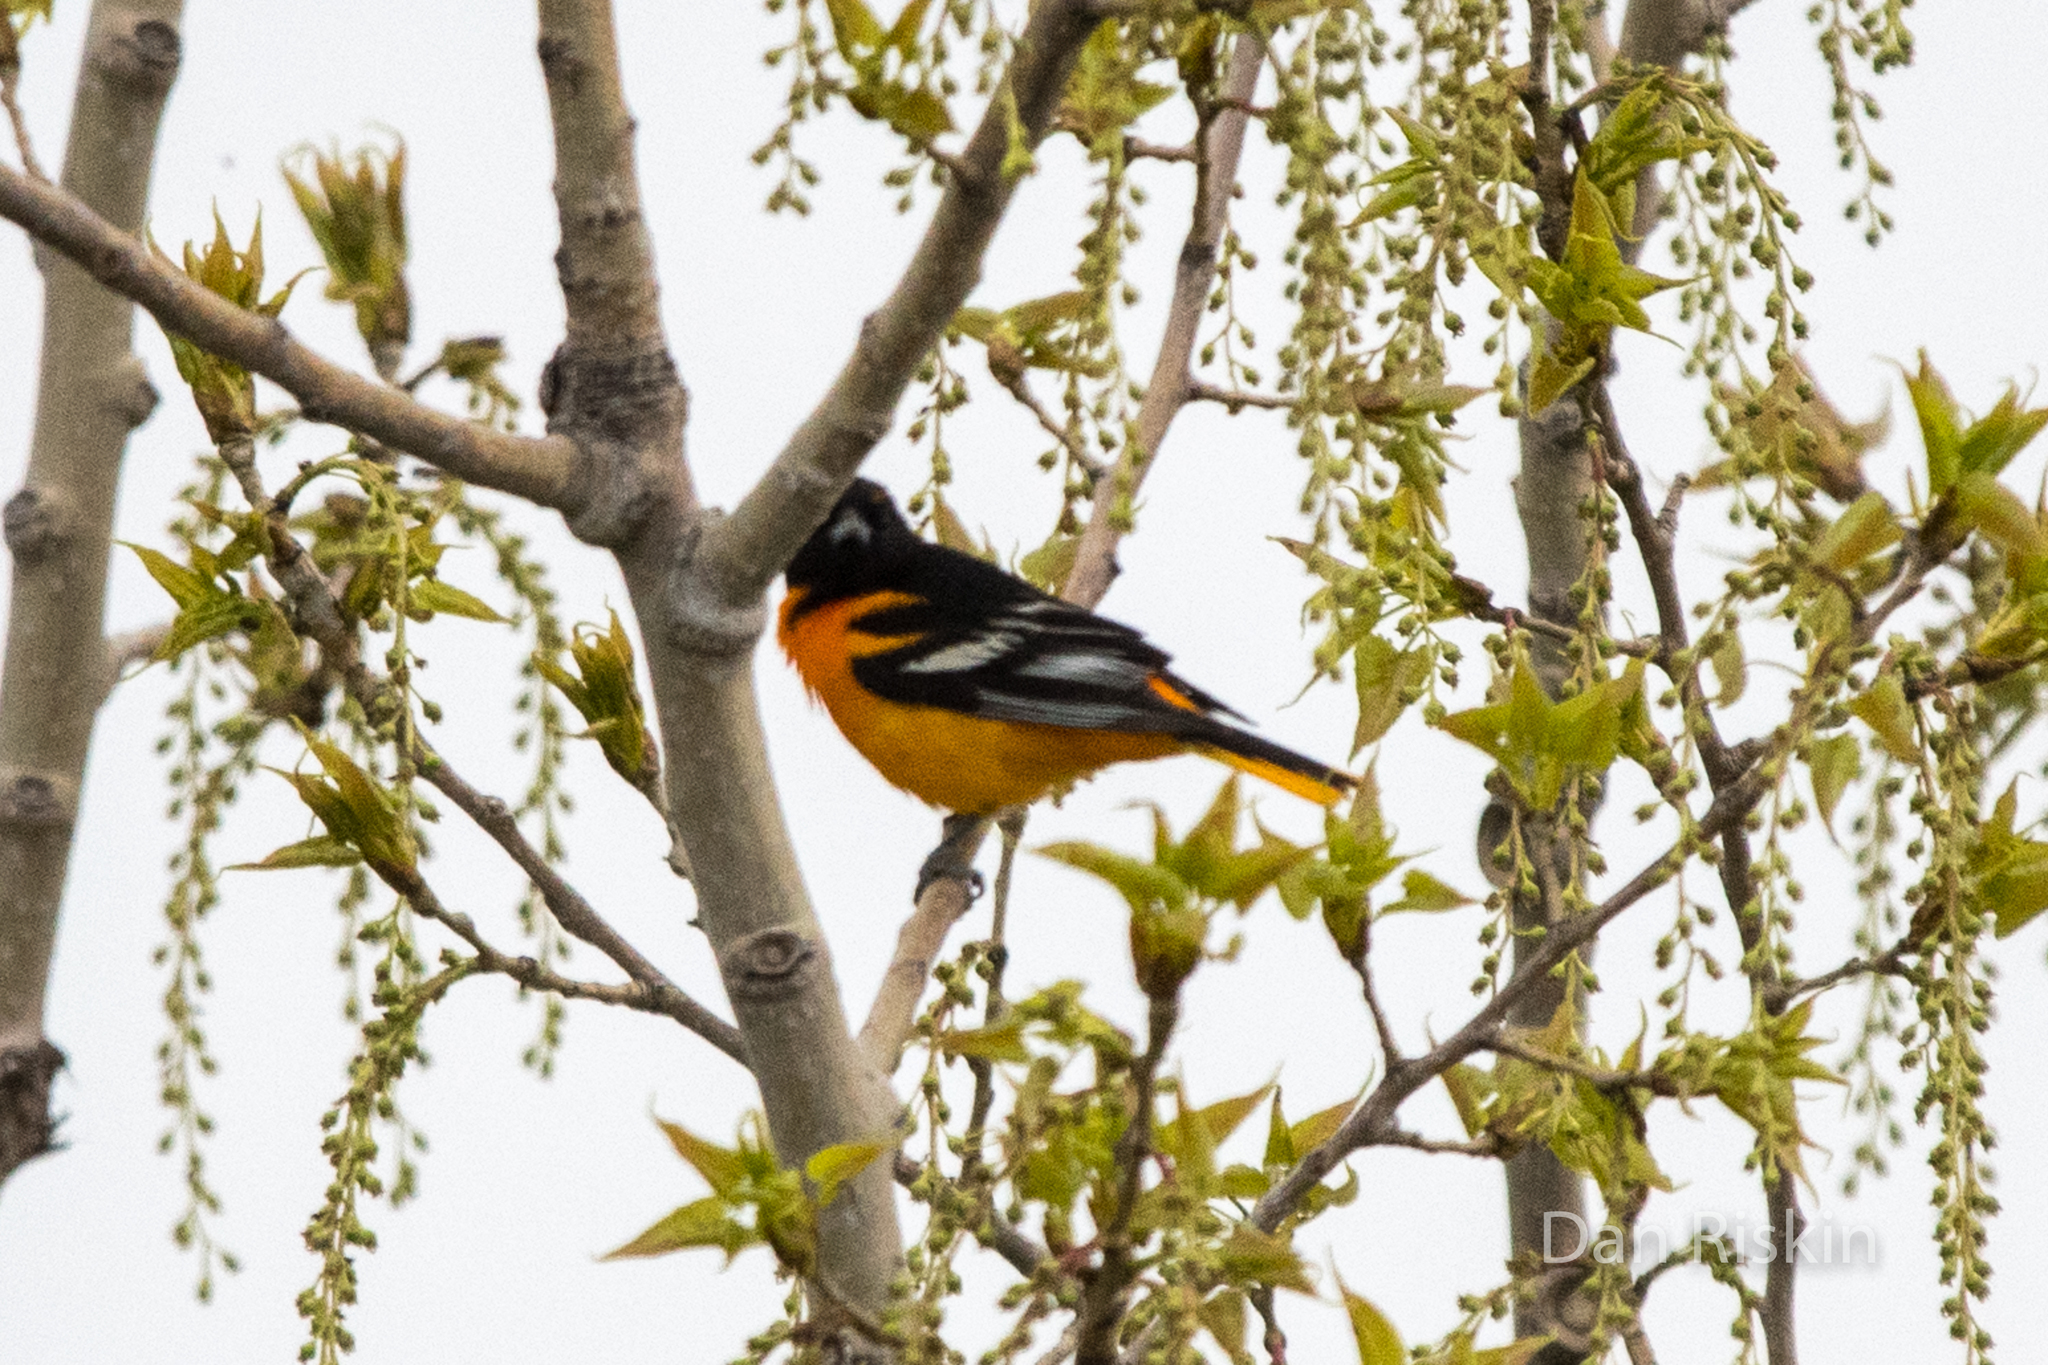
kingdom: Animalia
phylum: Chordata
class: Aves
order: Passeriformes
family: Icteridae
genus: Icterus
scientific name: Icterus galbula
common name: Baltimore oriole
